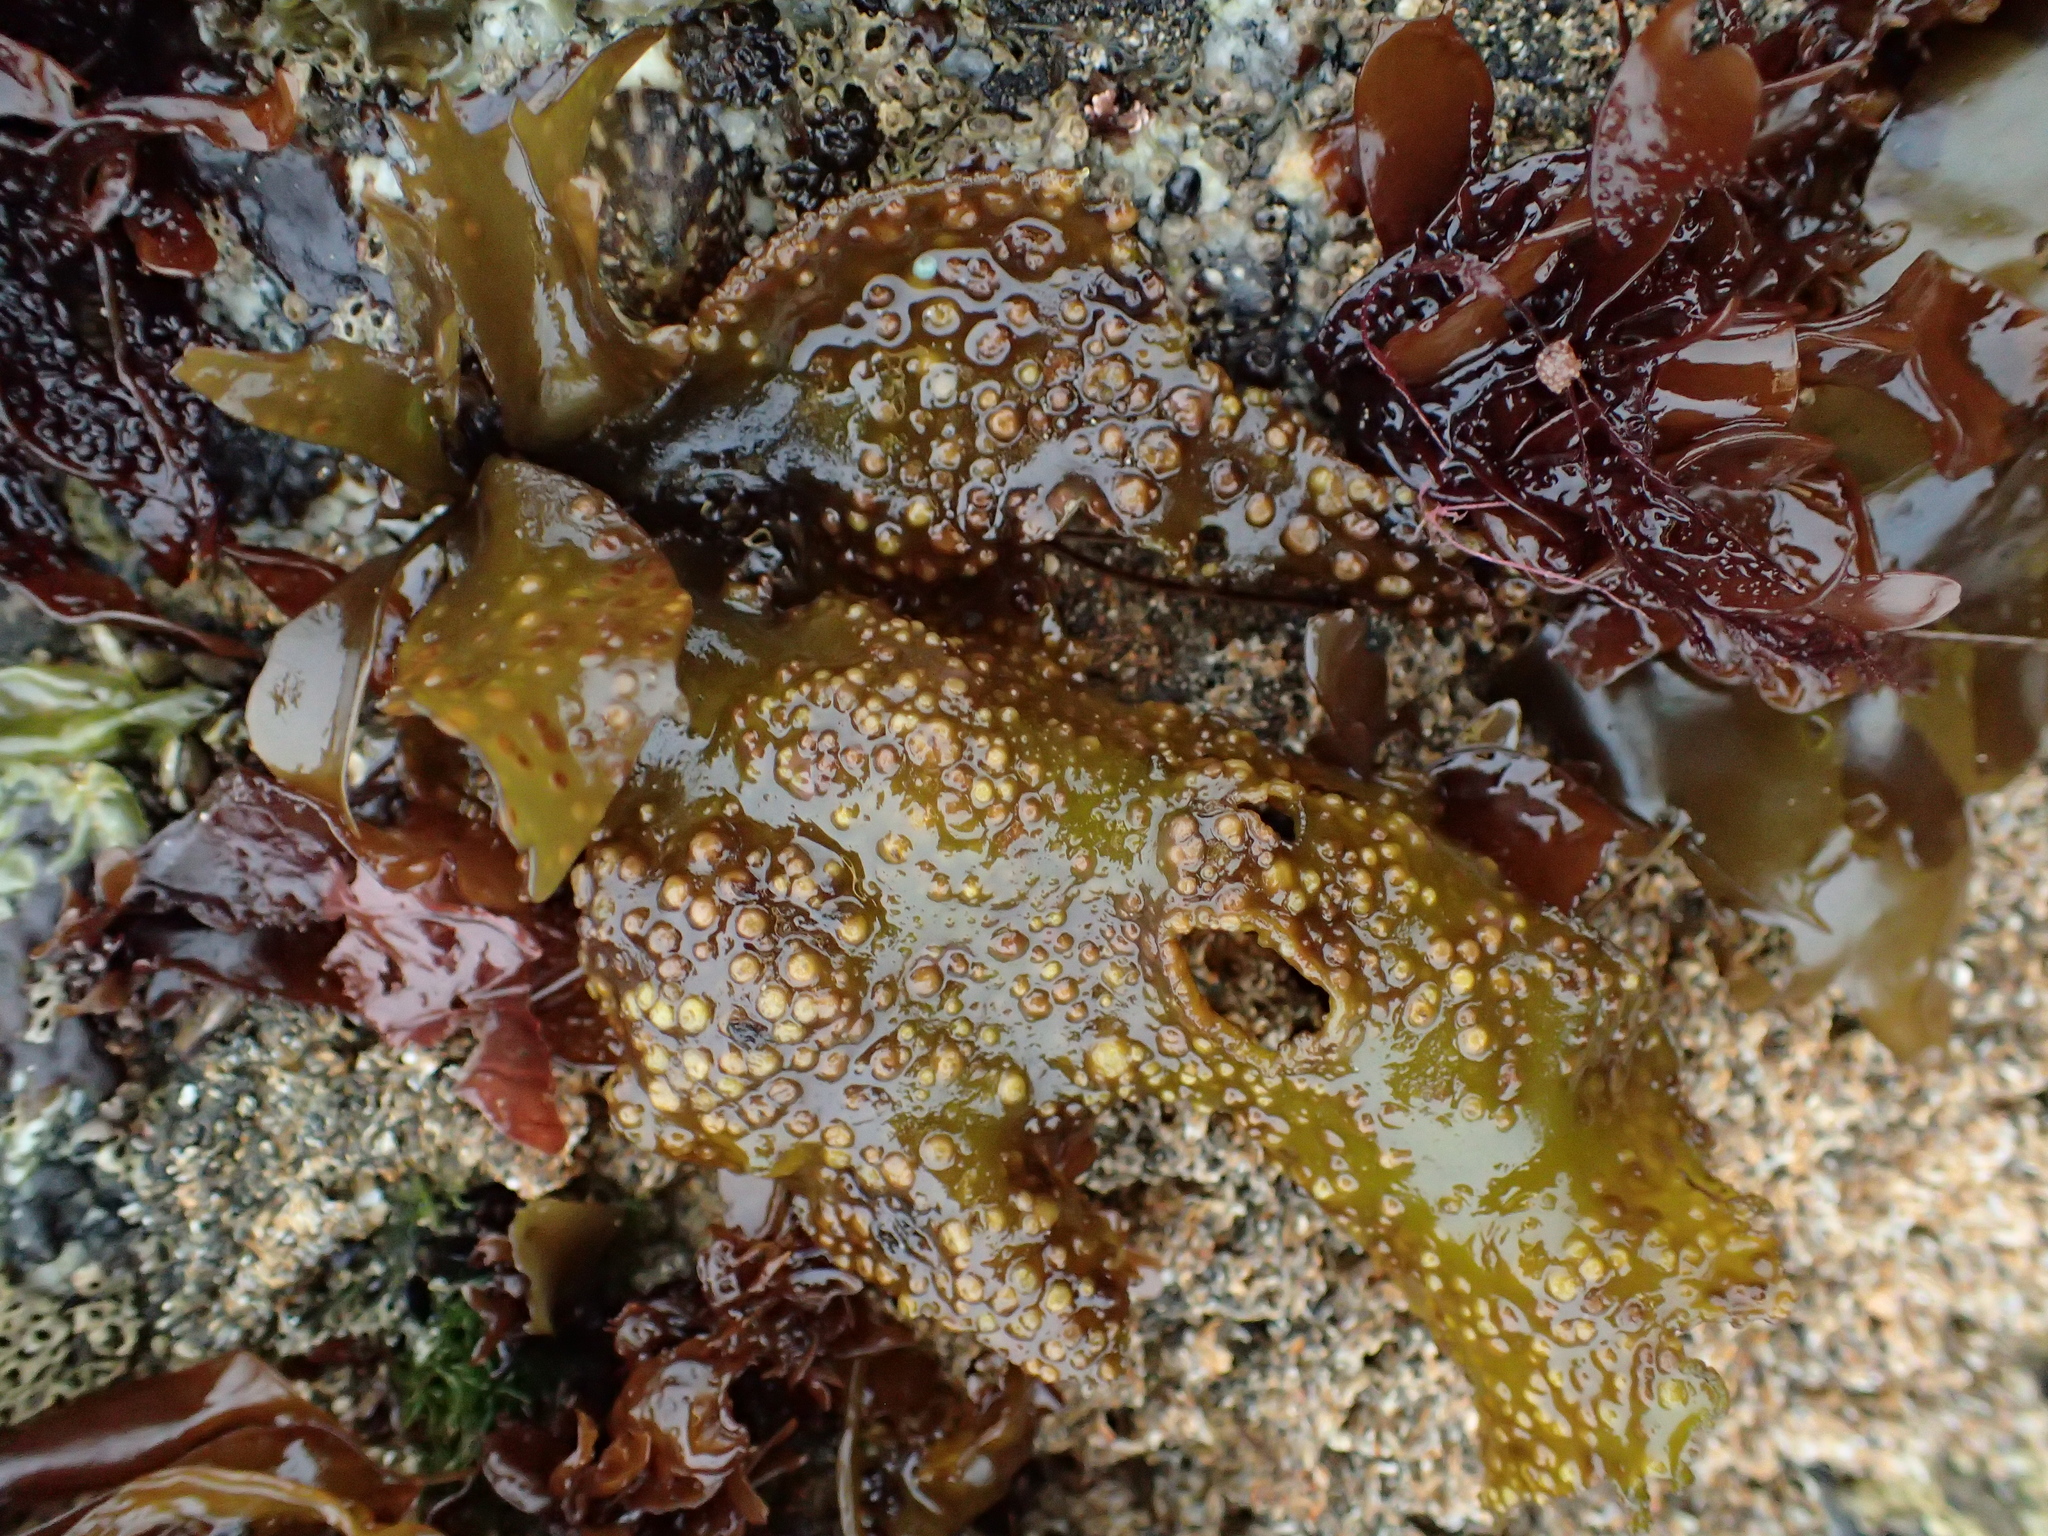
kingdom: Plantae
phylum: Rhodophyta
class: Florideophyceae
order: Gigartinales
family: Phyllophoraceae
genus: Mastocarpus
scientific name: Mastocarpus papillatus
